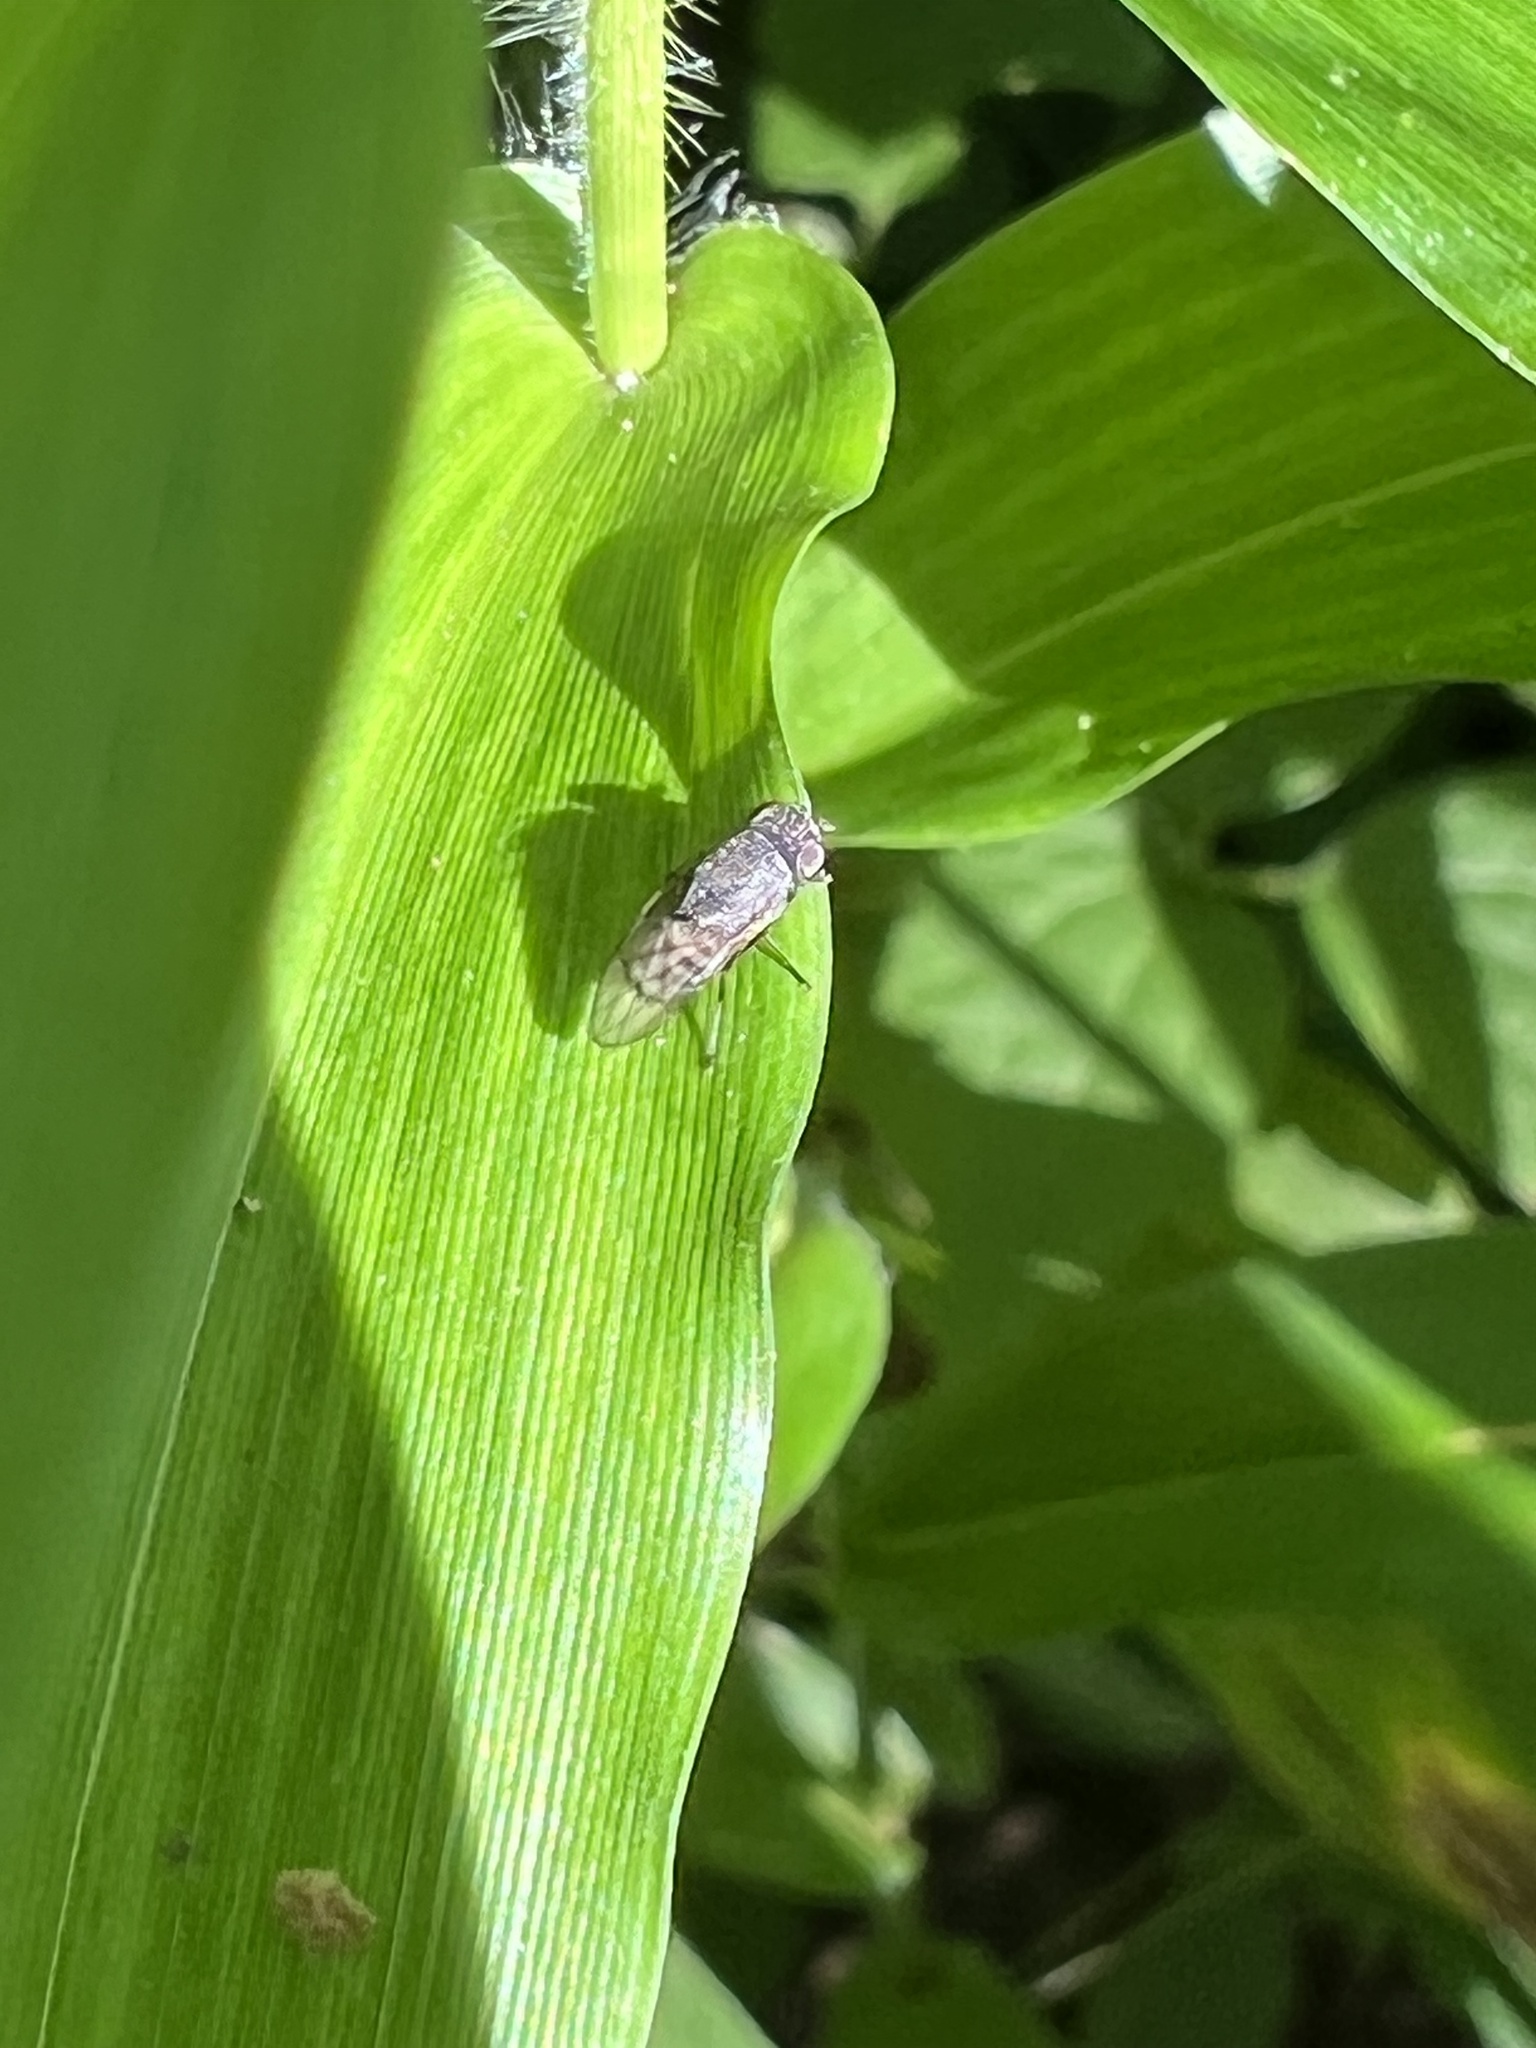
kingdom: Animalia
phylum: Arthropoda
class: Insecta
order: Diptera
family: Ephydridae
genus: Paralimna
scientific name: Paralimna punctipennis
